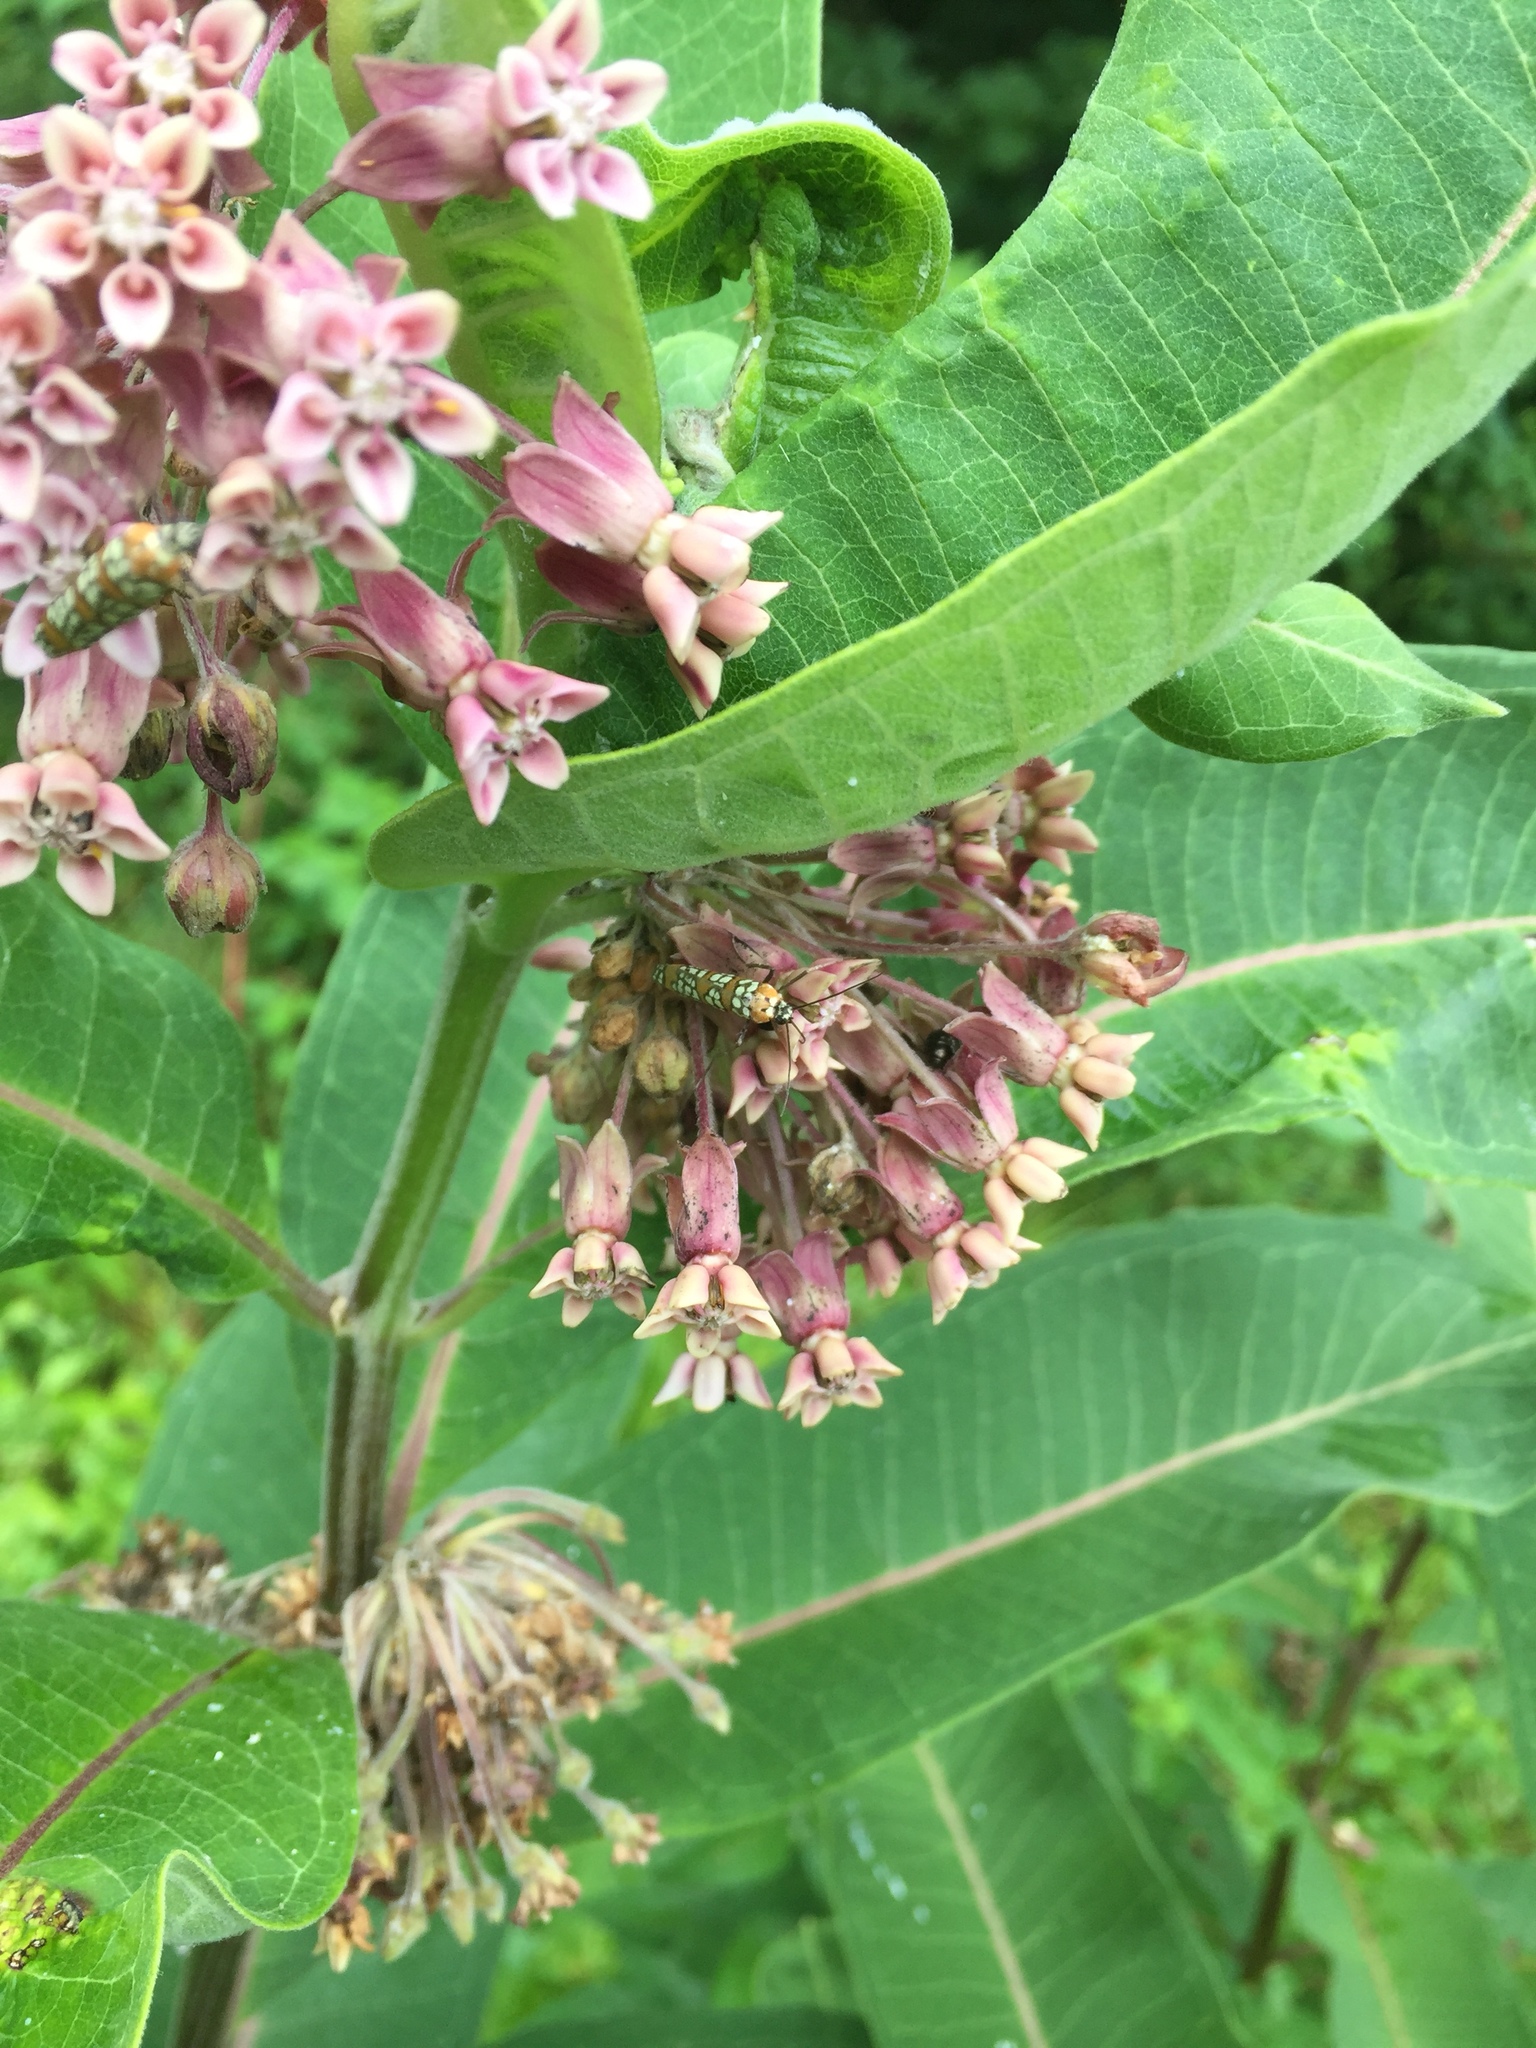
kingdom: Animalia
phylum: Arthropoda
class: Insecta
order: Lepidoptera
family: Attevidae
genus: Atteva
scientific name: Atteva punctella
